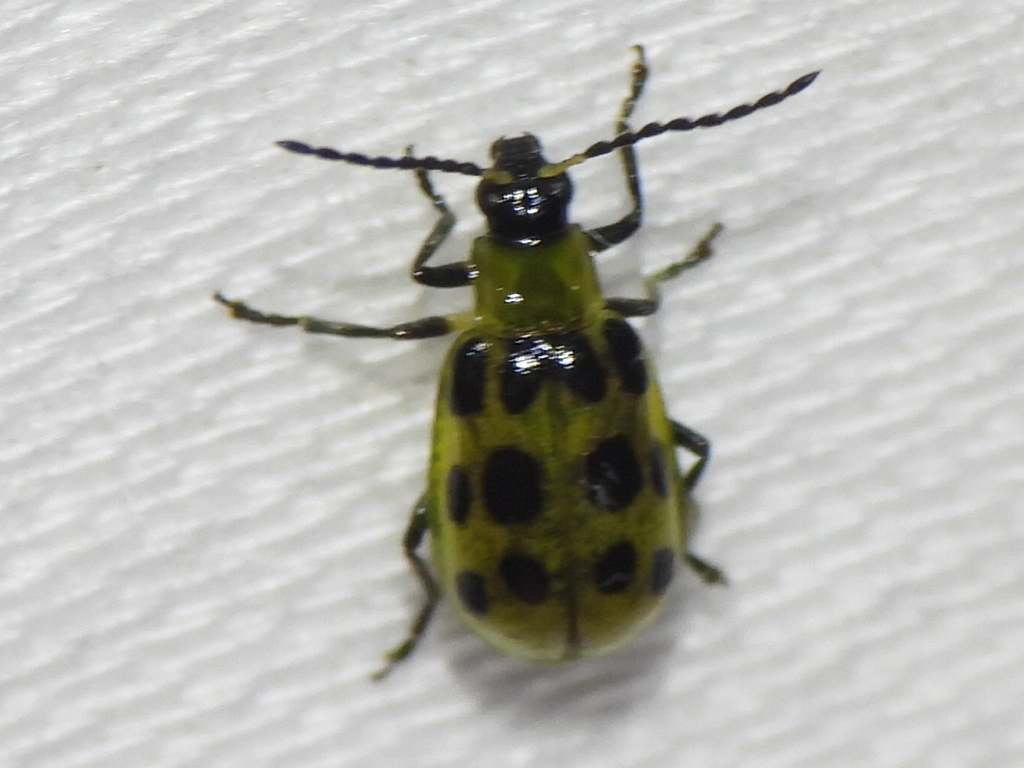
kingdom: Animalia
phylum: Arthropoda
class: Insecta
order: Coleoptera
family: Chrysomelidae
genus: Diabrotica
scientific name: Diabrotica undecimpunctata
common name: Spotted cucumber beetle
